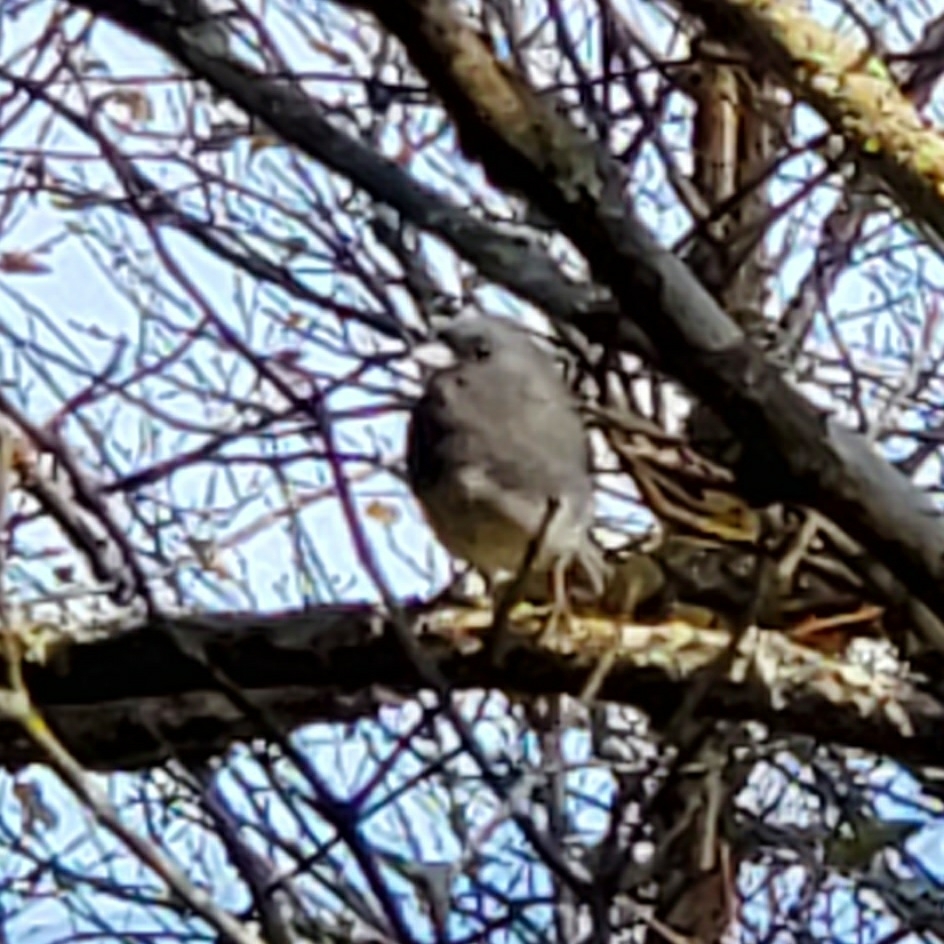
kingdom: Animalia
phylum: Chordata
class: Aves
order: Passeriformes
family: Passerellidae
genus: Junco
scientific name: Junco hyemalis
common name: Dark-eyed junco
